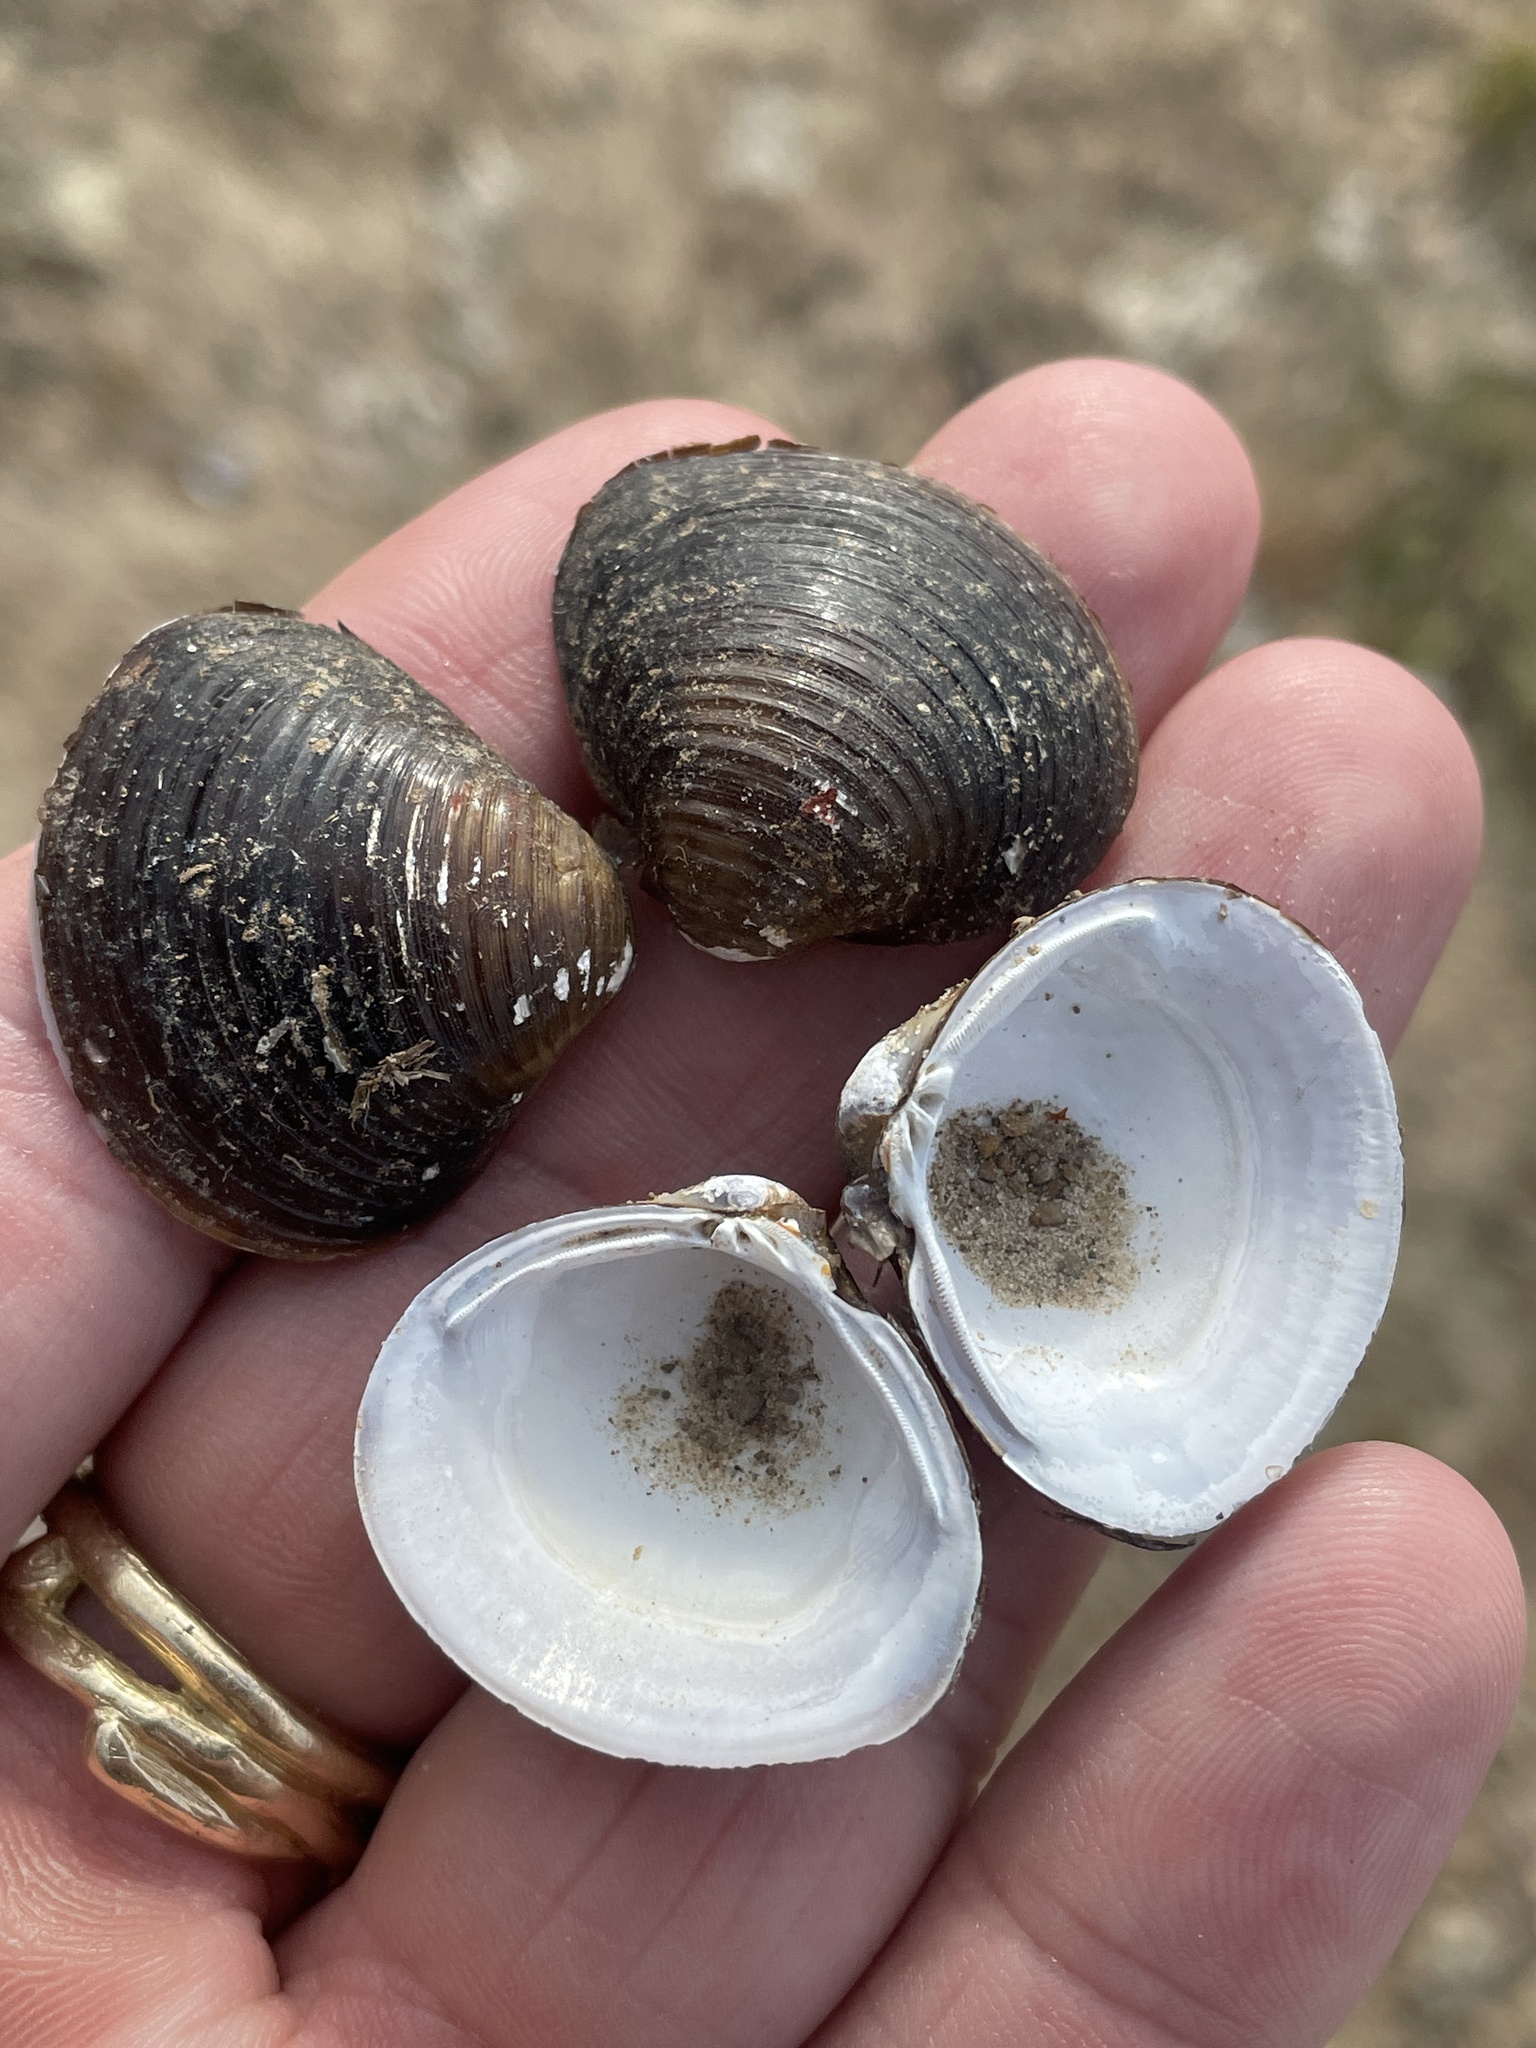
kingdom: Animalia
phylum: Mollusca
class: Bivalvia
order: Venerida
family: Cyrenidae
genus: Corbicula
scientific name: Corbicula fluminea
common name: Asian clam
